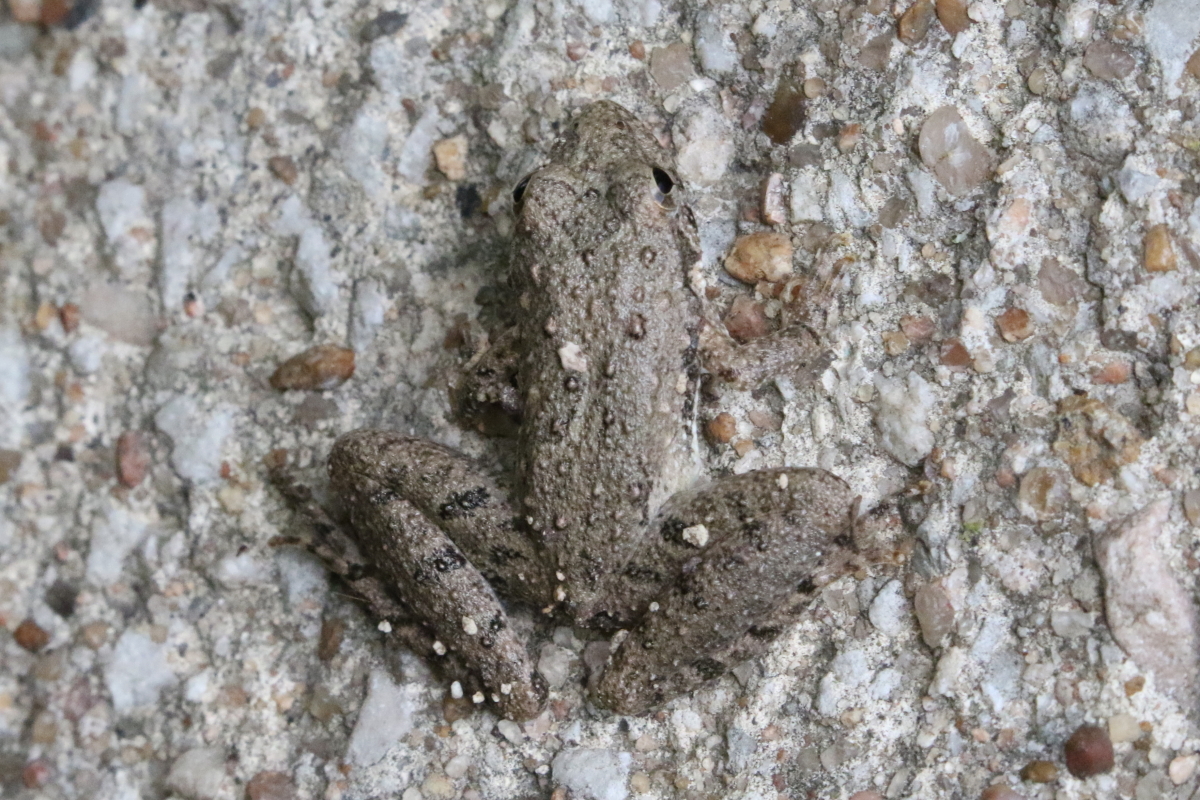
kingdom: Animalia
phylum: Chordata
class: Amphibia
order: Anura
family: Hylidae
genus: Acris
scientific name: Acris blanchardi
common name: Blanchard's cricket frog
